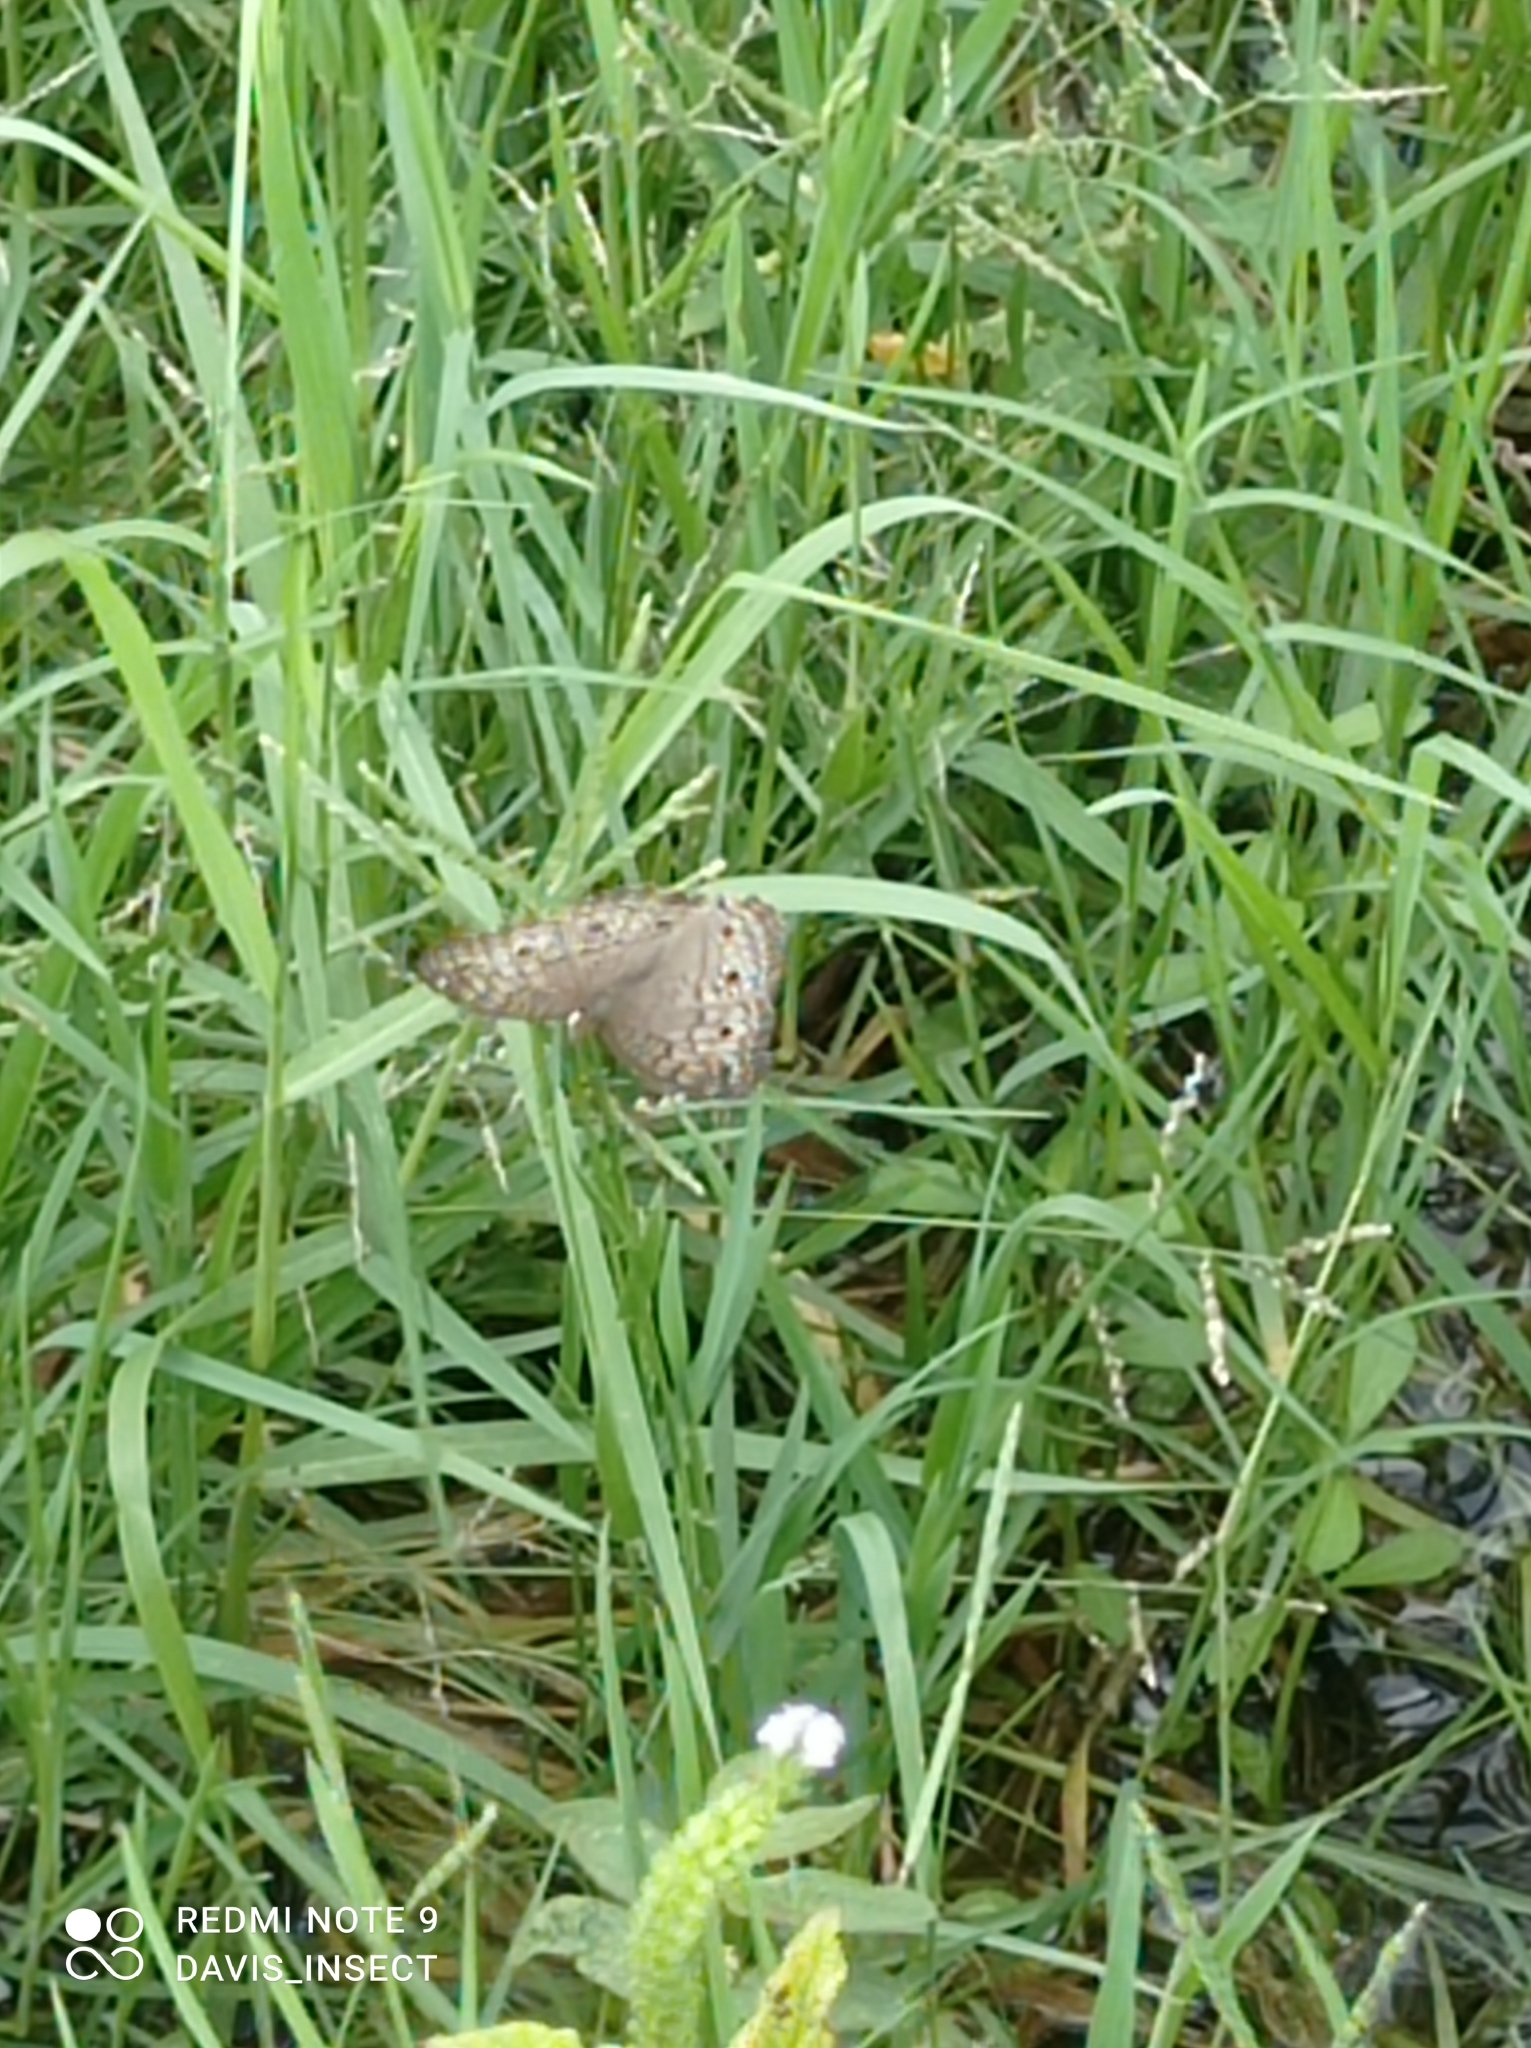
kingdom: Animalia
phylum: Arthropoda
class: Insecta
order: Lepidoptera
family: Nymphalidae
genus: Junonia
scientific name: Junonia atlites
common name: Grey pansy
